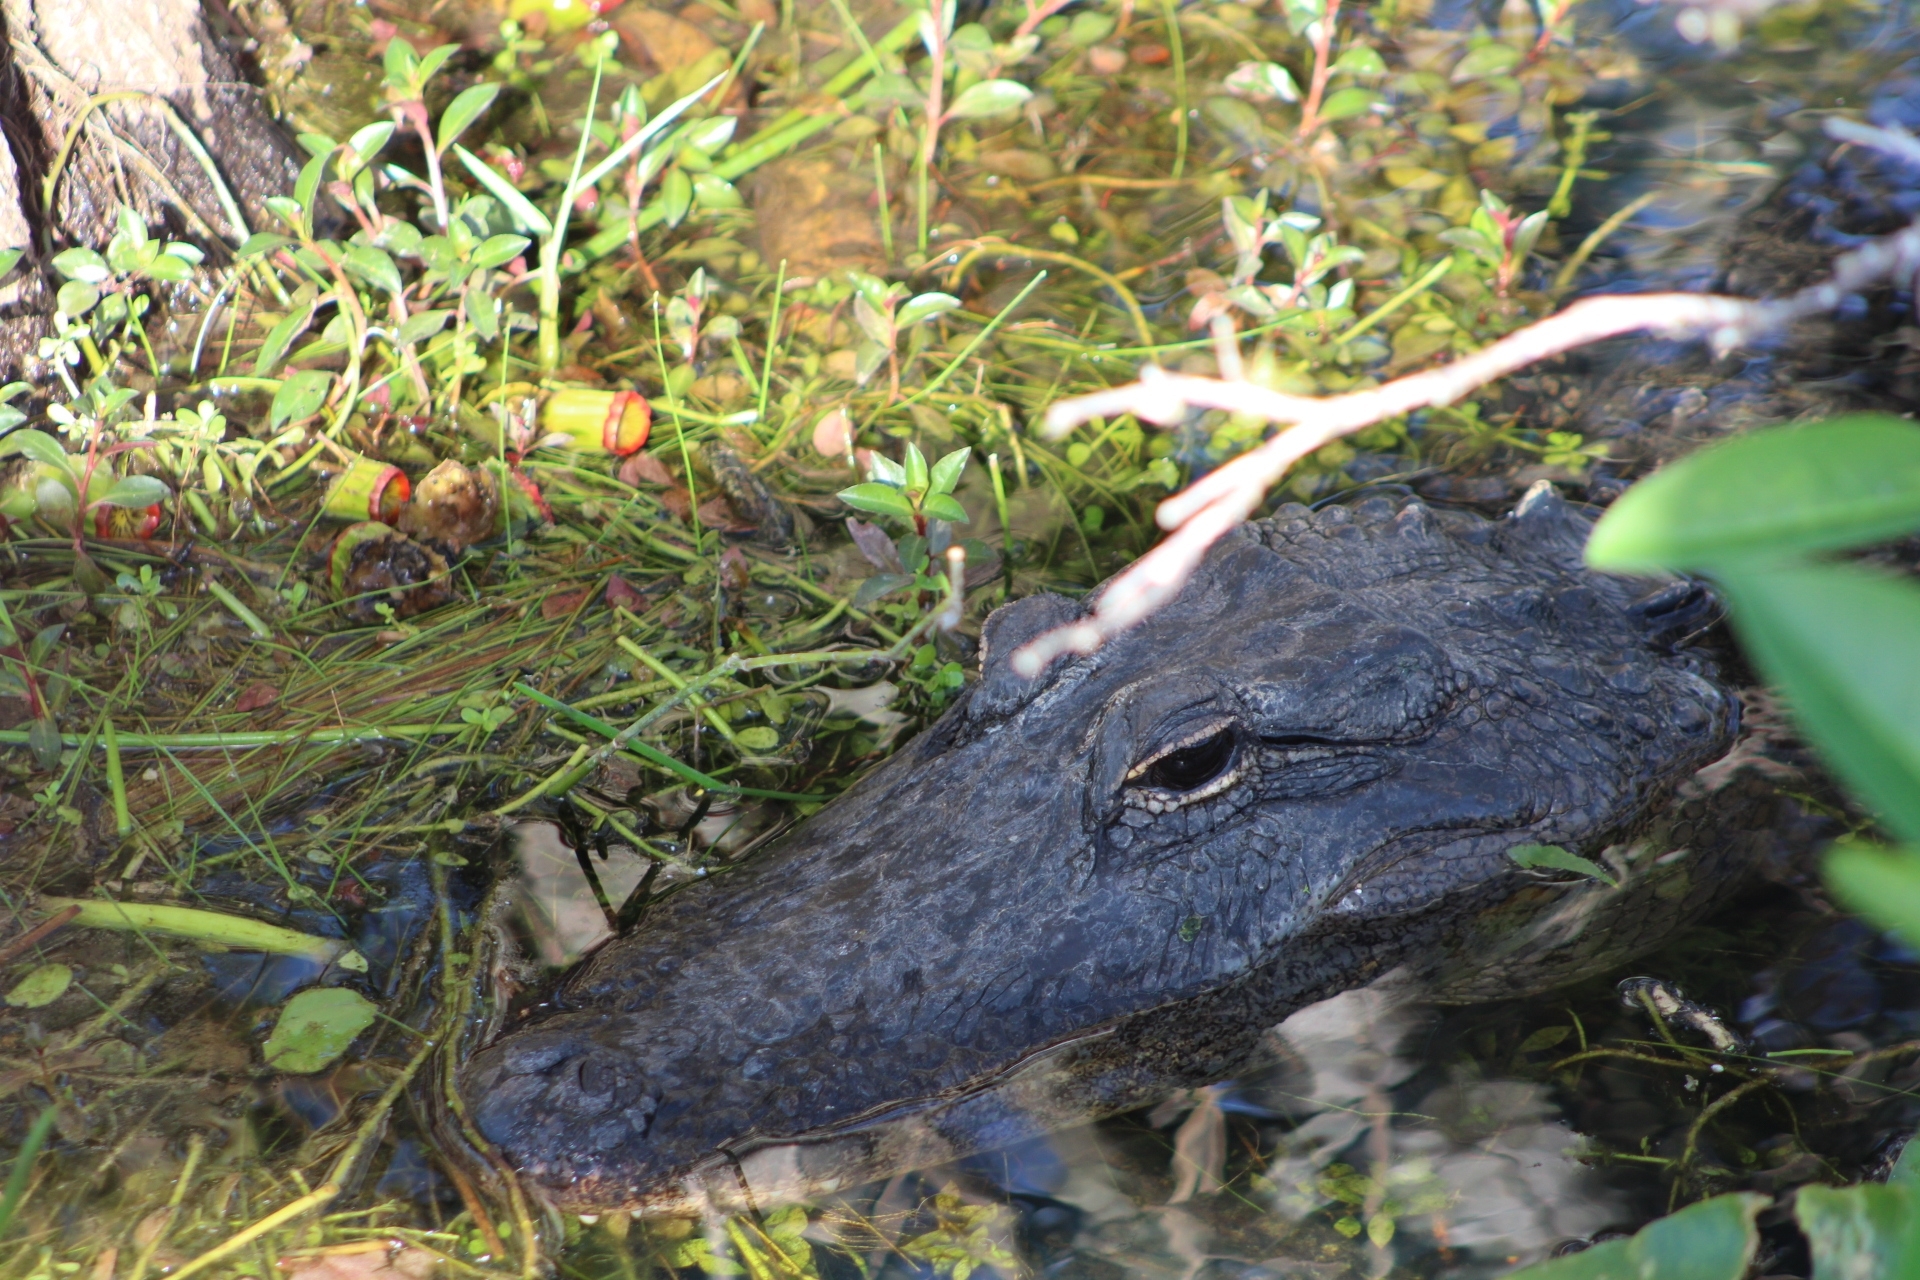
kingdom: Animalia
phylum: Chordata
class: Crocodylia
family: Alligatoridae
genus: Alligator
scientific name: Alligator mississippiensis
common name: American alligator
